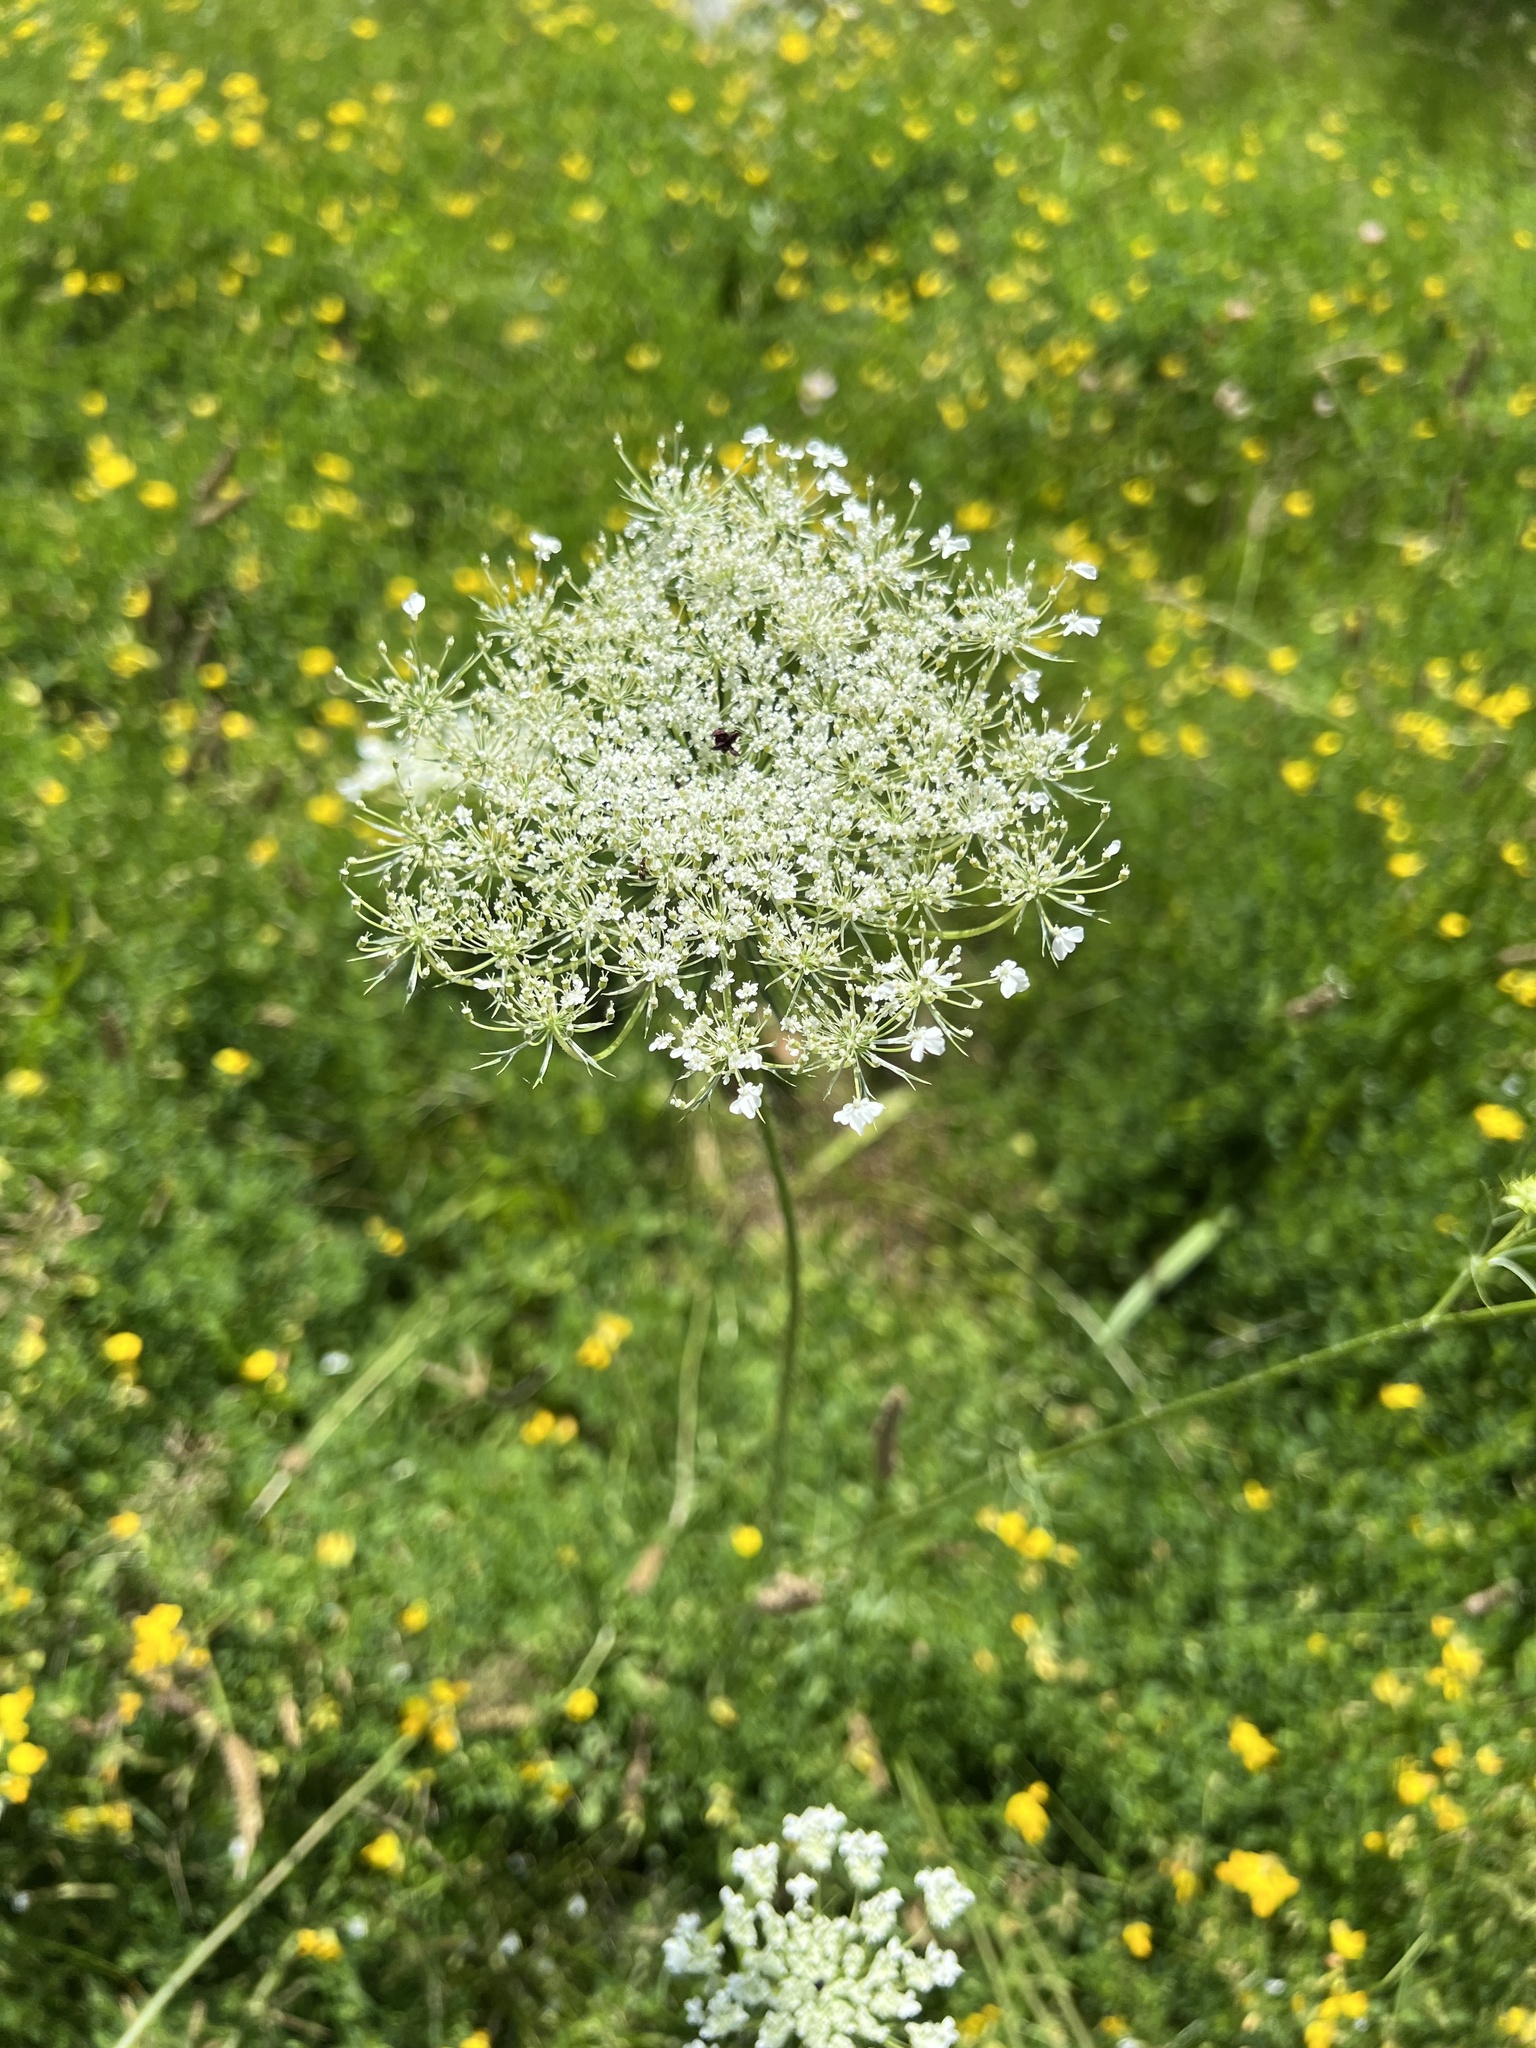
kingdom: Plantae
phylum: Tracheophyta
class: Magnoliopsida
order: Apiales
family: Apiaceae
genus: Daucus
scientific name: Daucus carota
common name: Wild carrot
